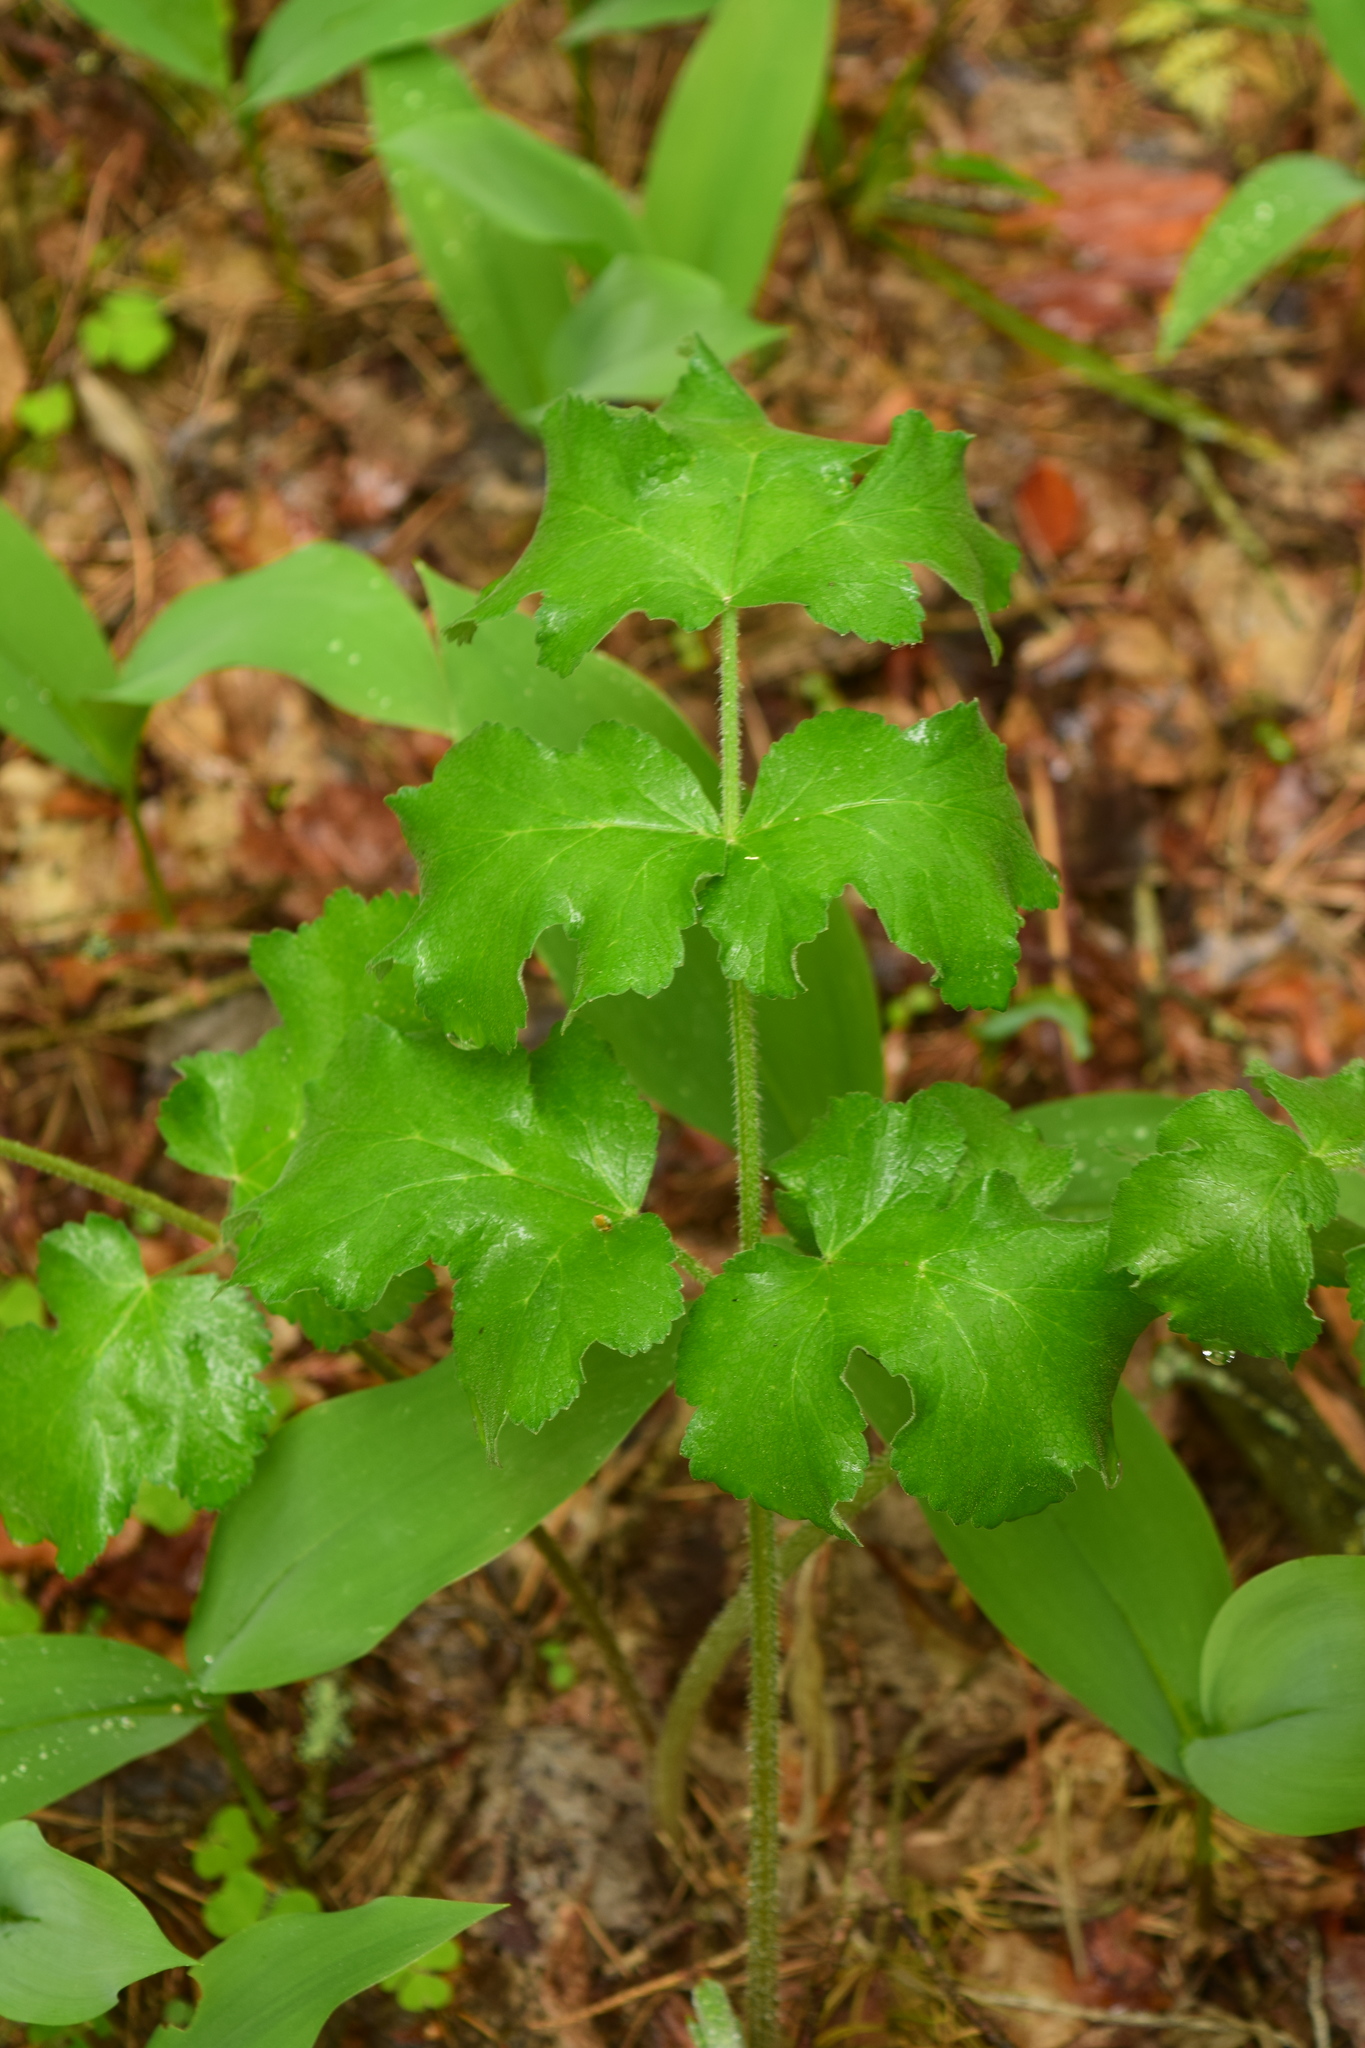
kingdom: Plantae
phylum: Tracheophyta
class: Magnoliopsida
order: Apiales
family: Apiaceae
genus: Heracleum
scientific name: Heracleum sphondylium
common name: Hogweed
